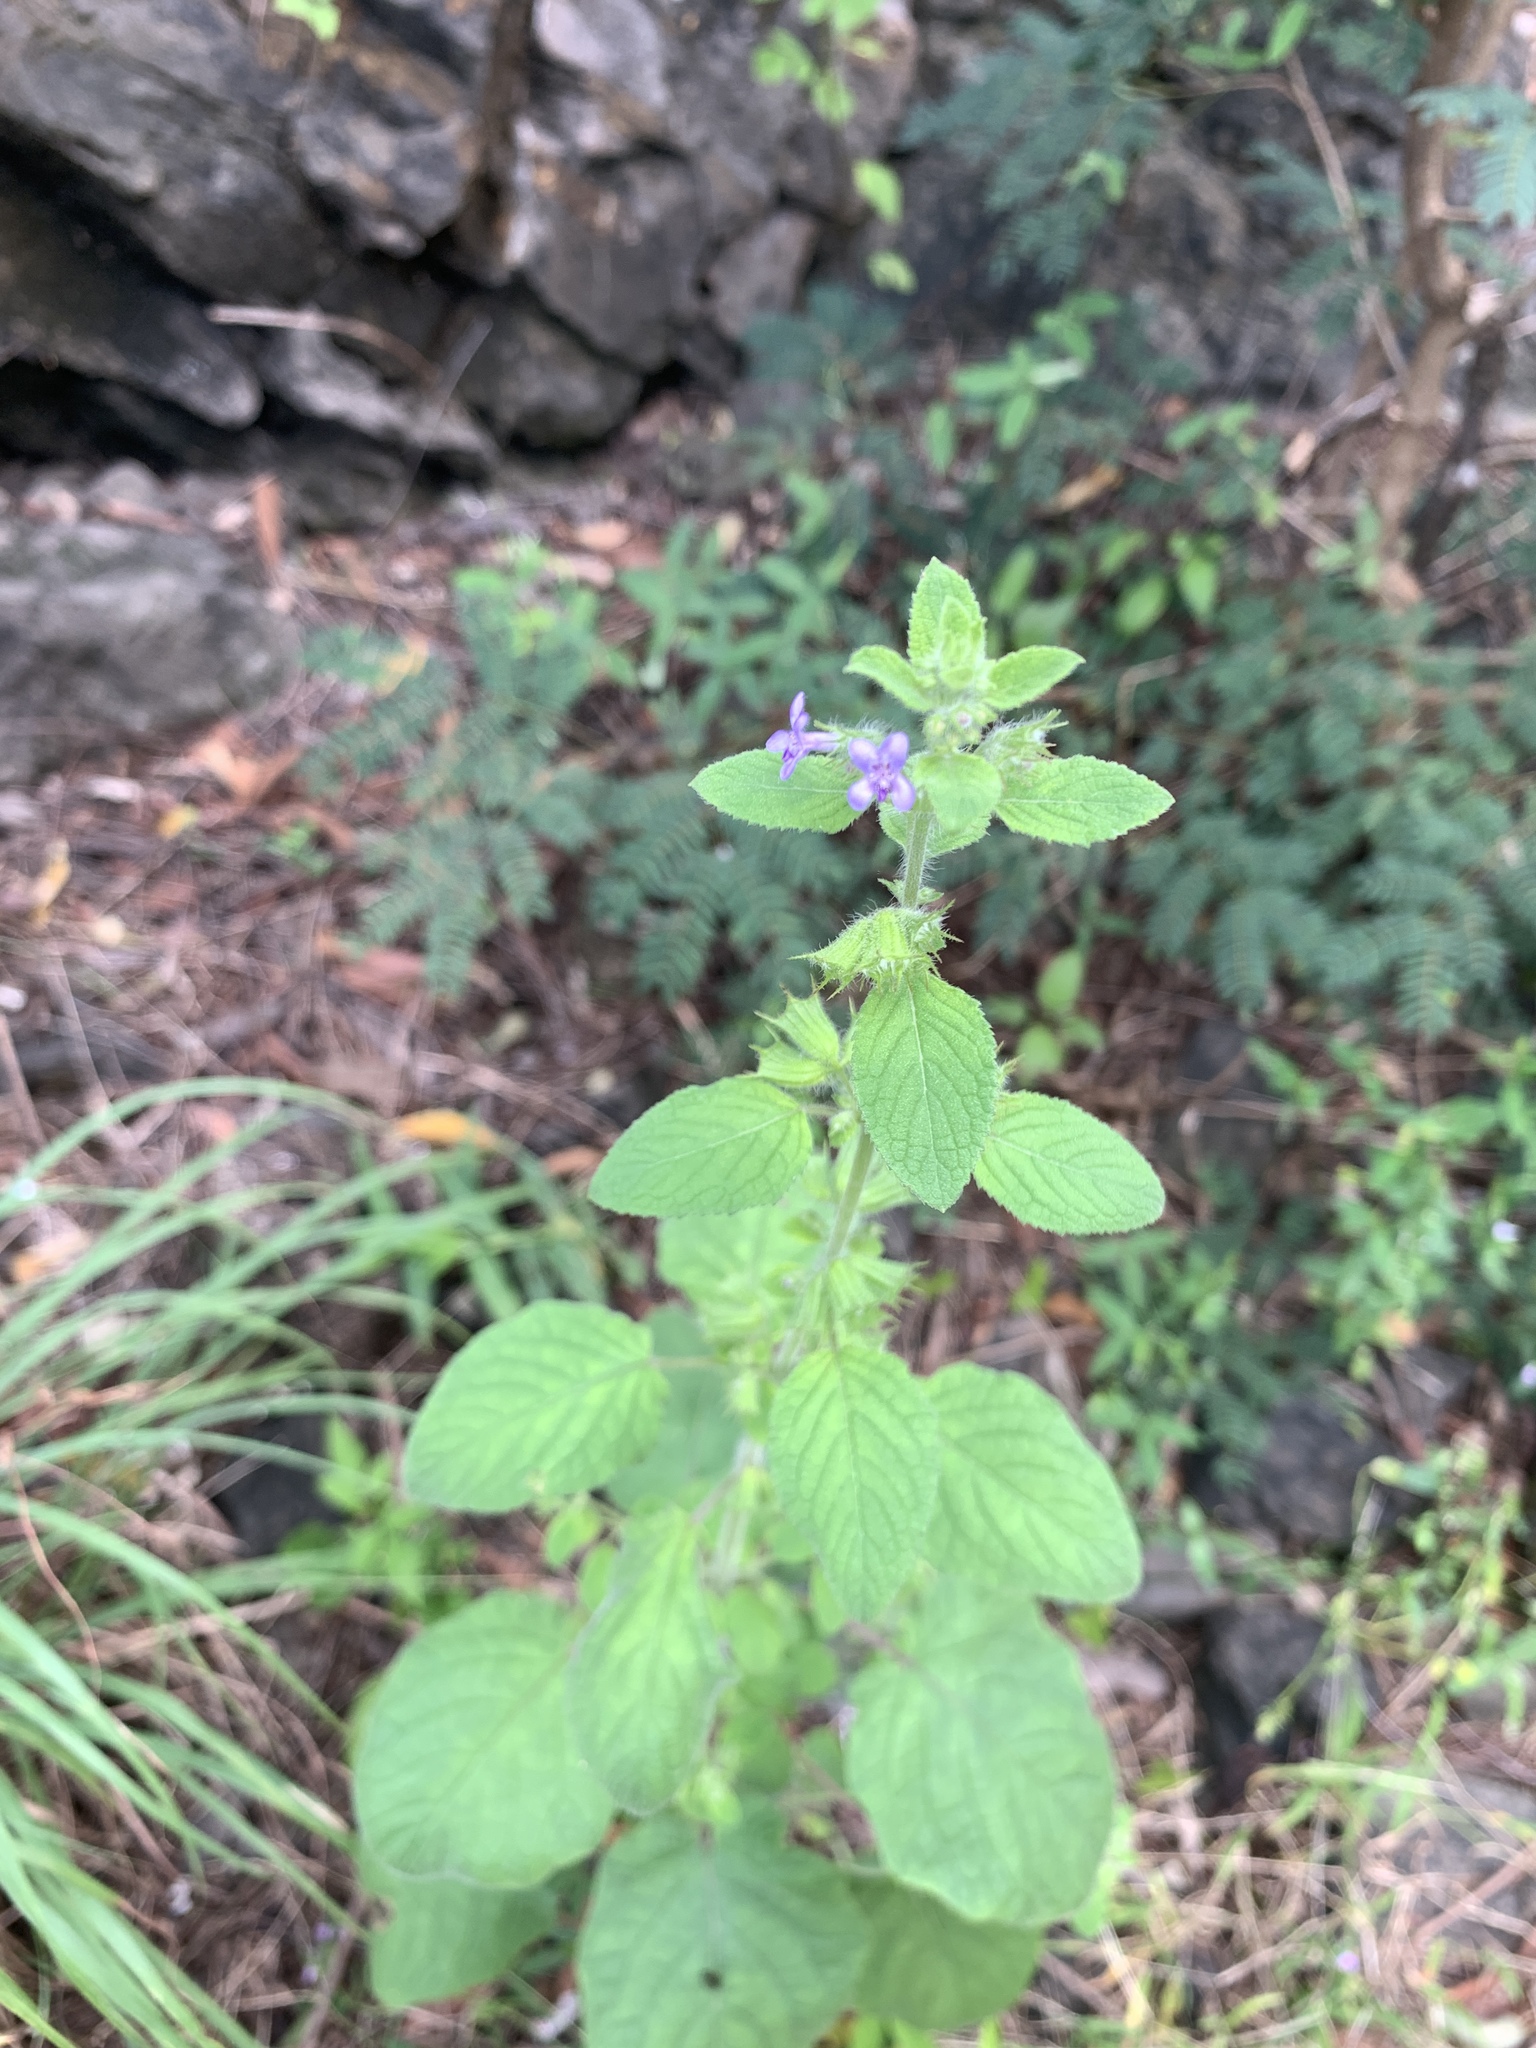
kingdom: Plantae
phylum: Tracheophyta
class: Magnoliopsida
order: Lamiales
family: Lamiaceae
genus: Mesosphaerum
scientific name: Mesosphaerum suaveolens
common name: Pignut
